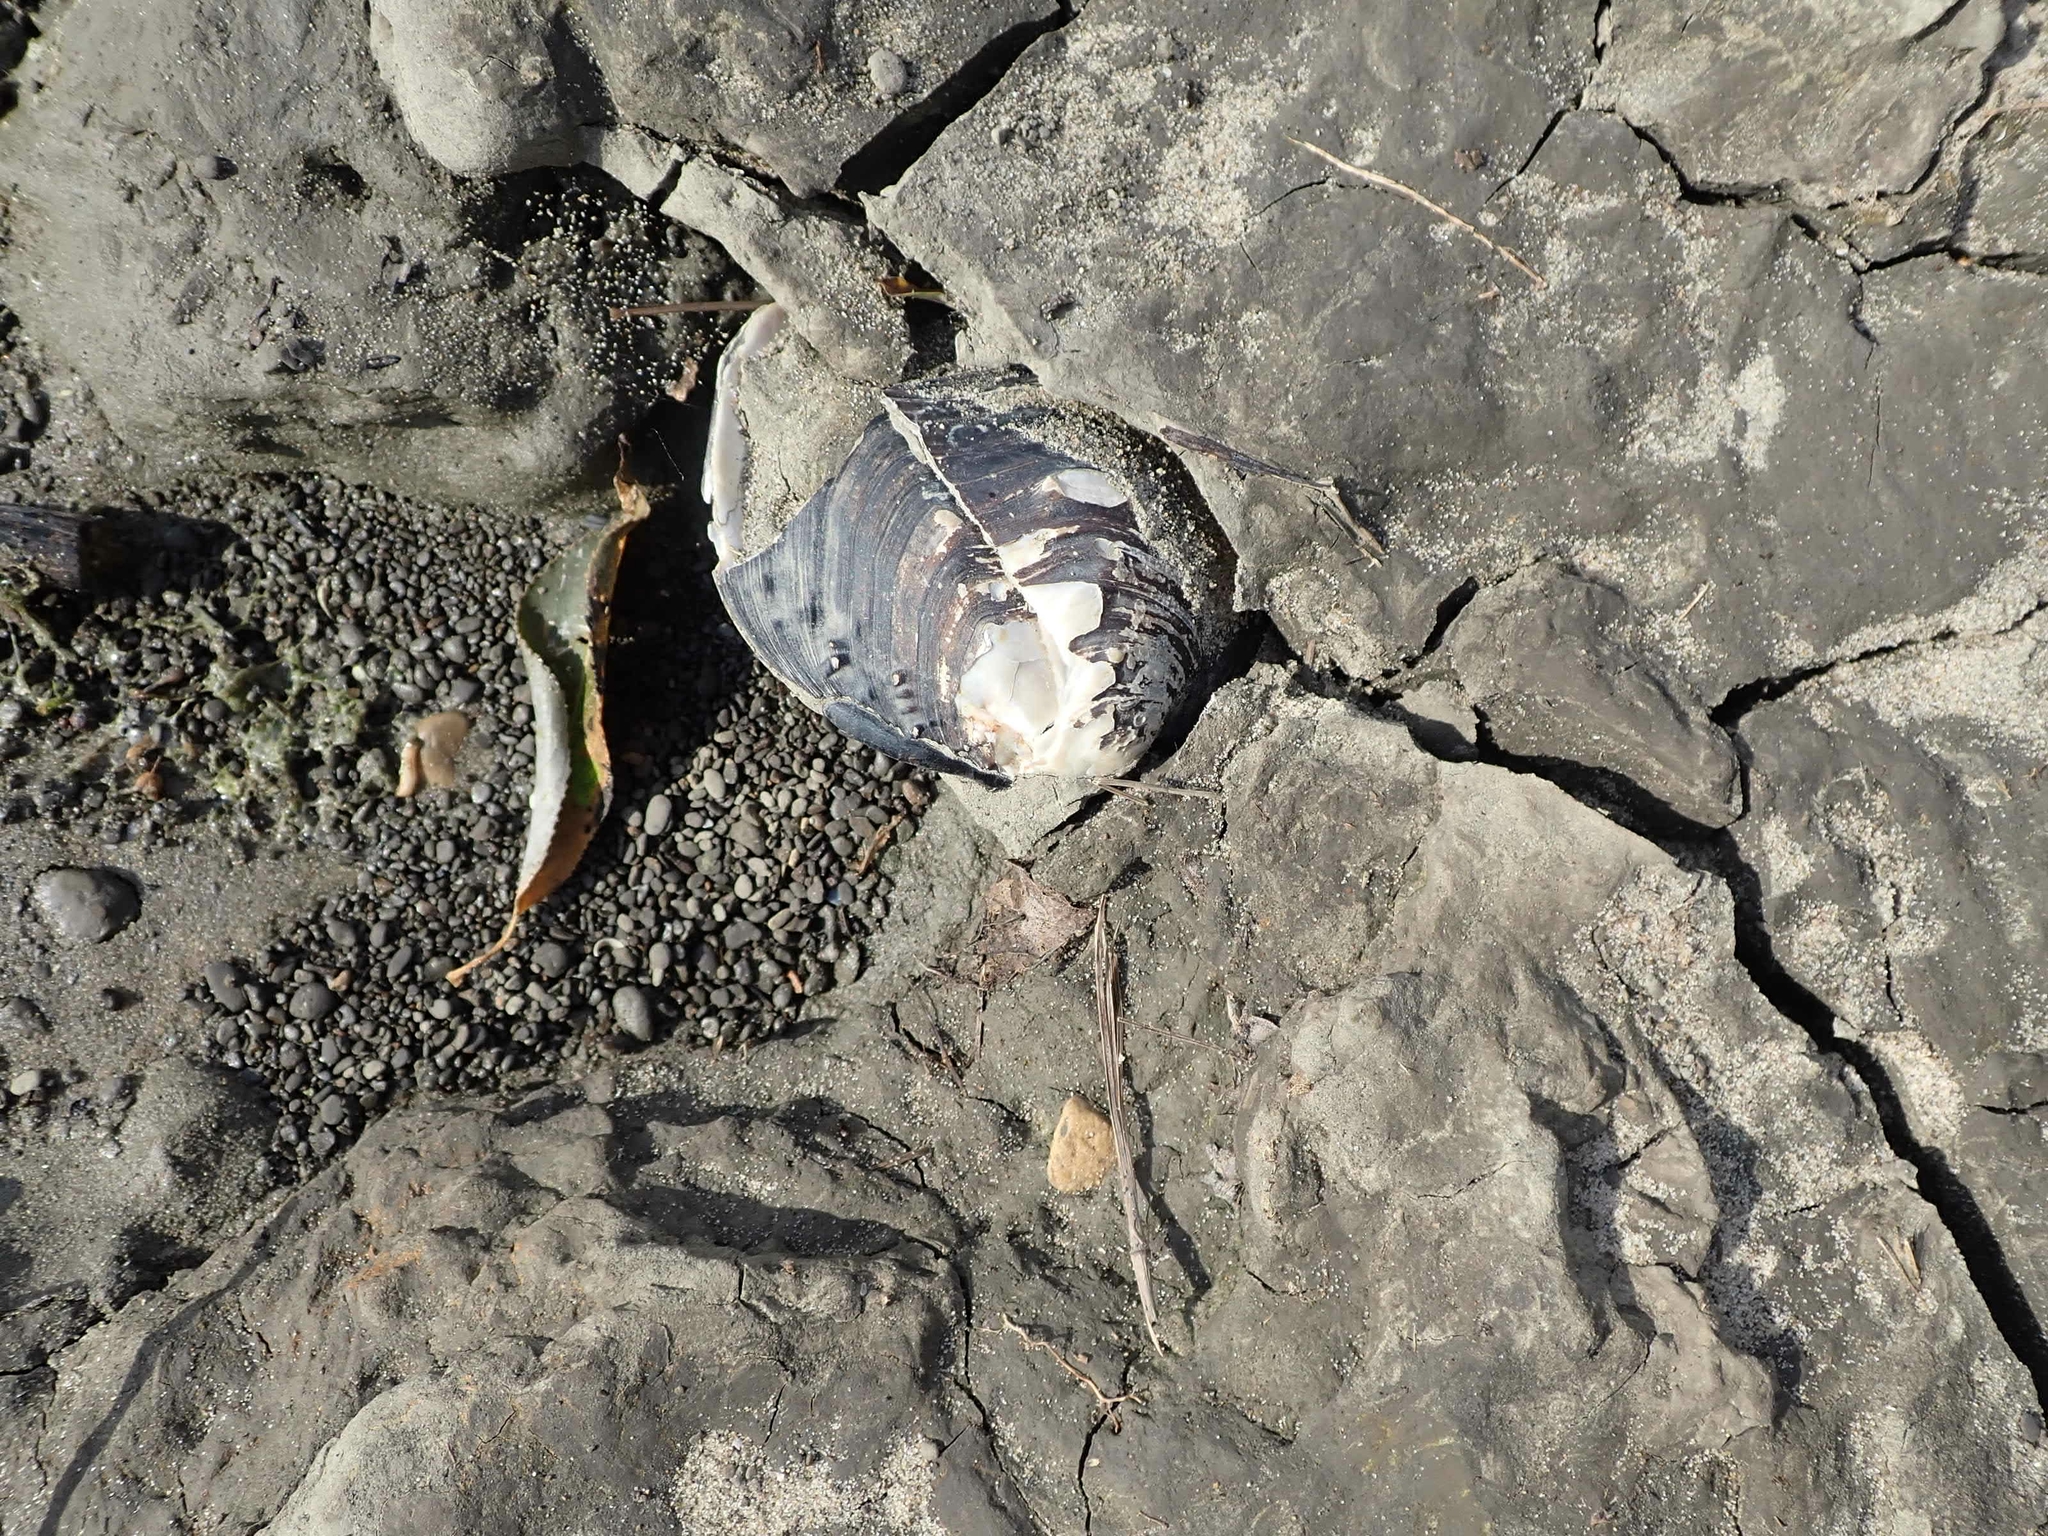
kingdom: Animalia
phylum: Mollusca
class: Bivalvia
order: Unionida
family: Unionidae
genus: Quadrula
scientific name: Quadrula quadrula
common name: Mapleleaf
